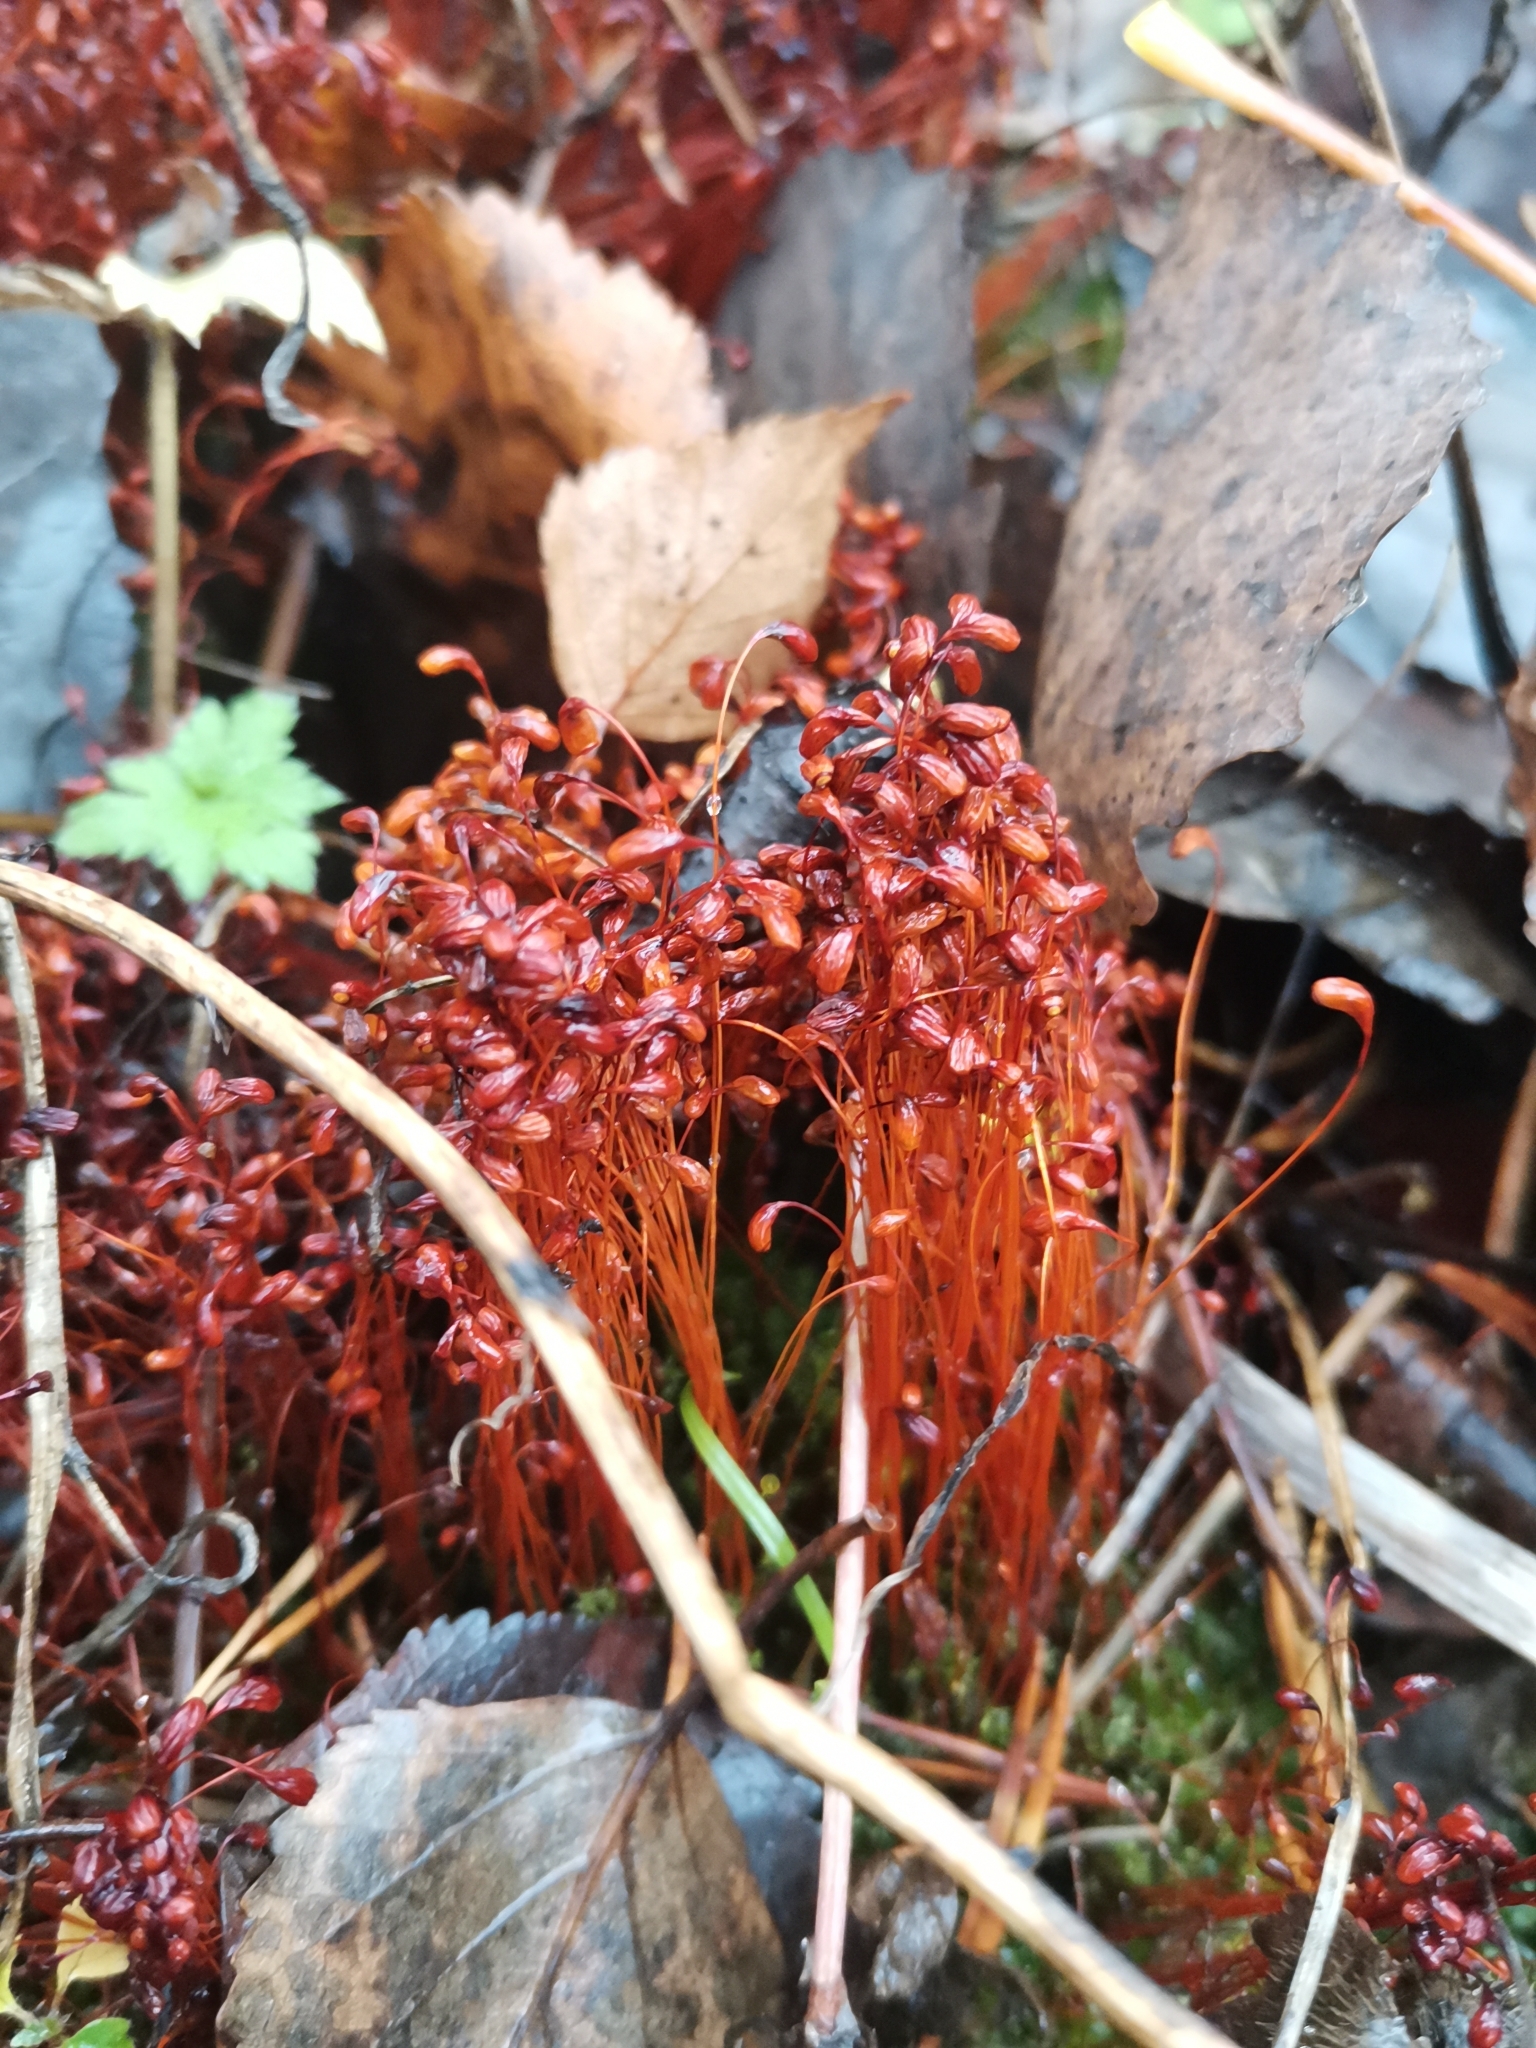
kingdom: Plantae
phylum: Bryophyta
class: Bryopsida
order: Funariales
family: Funariaceae
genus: Funaria
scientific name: Funaria hygrometrica
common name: Common cord moss
